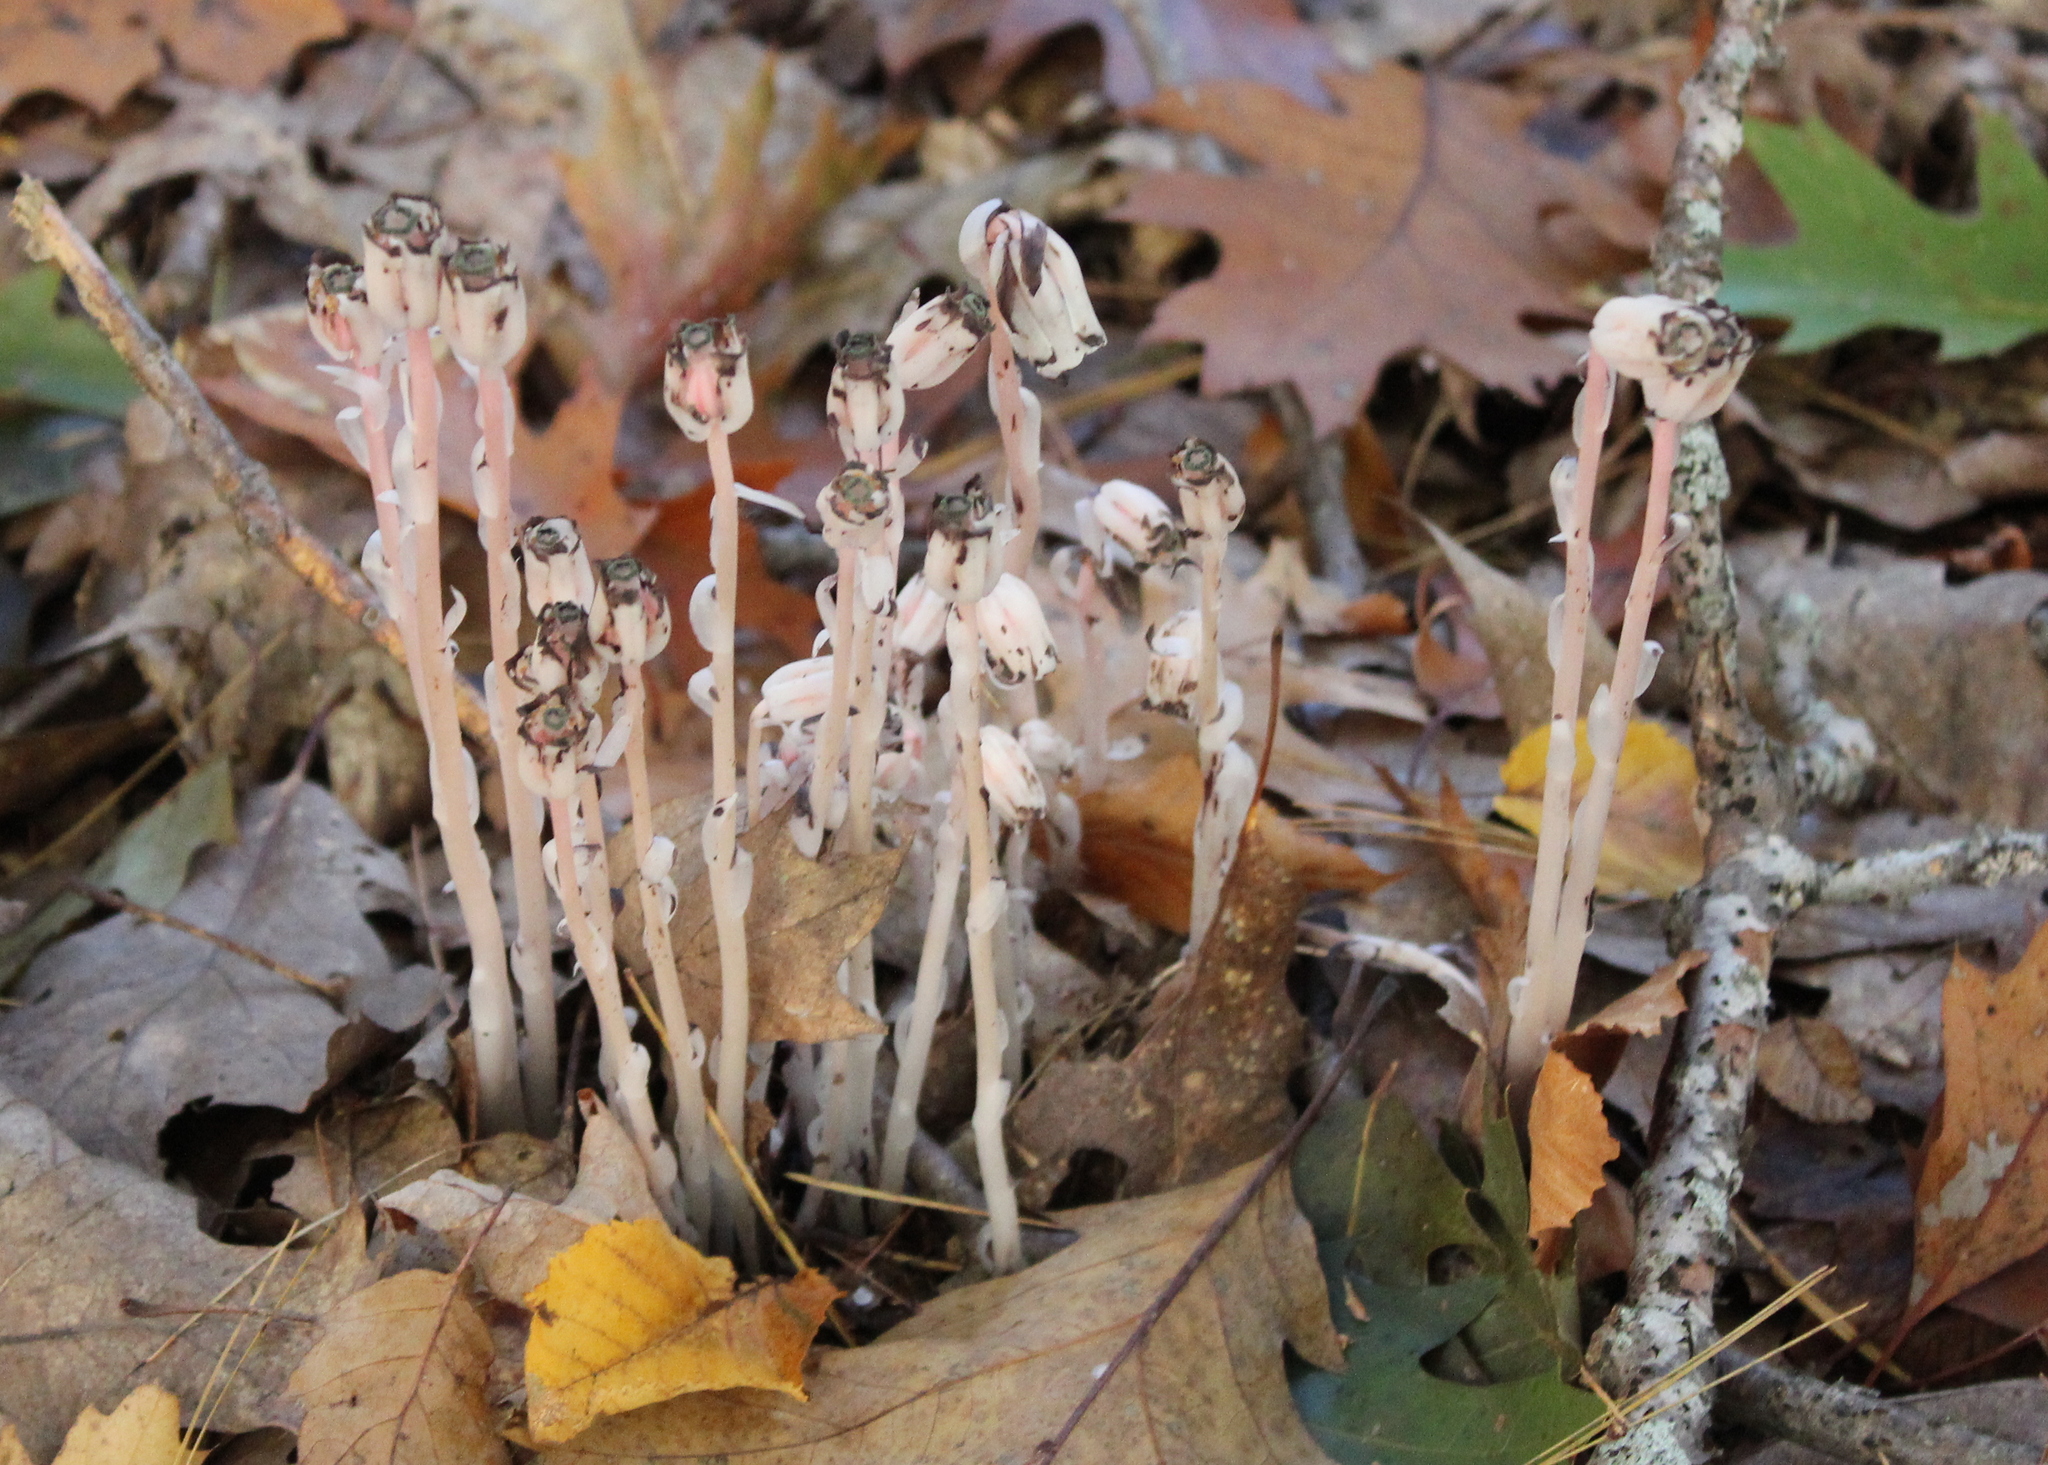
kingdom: Plantae
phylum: Tracheophyta
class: Magnoliopsida
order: Ericales
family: Ericaceae
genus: Monotropa
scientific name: Monotropa uniflora
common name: Convulsion root
